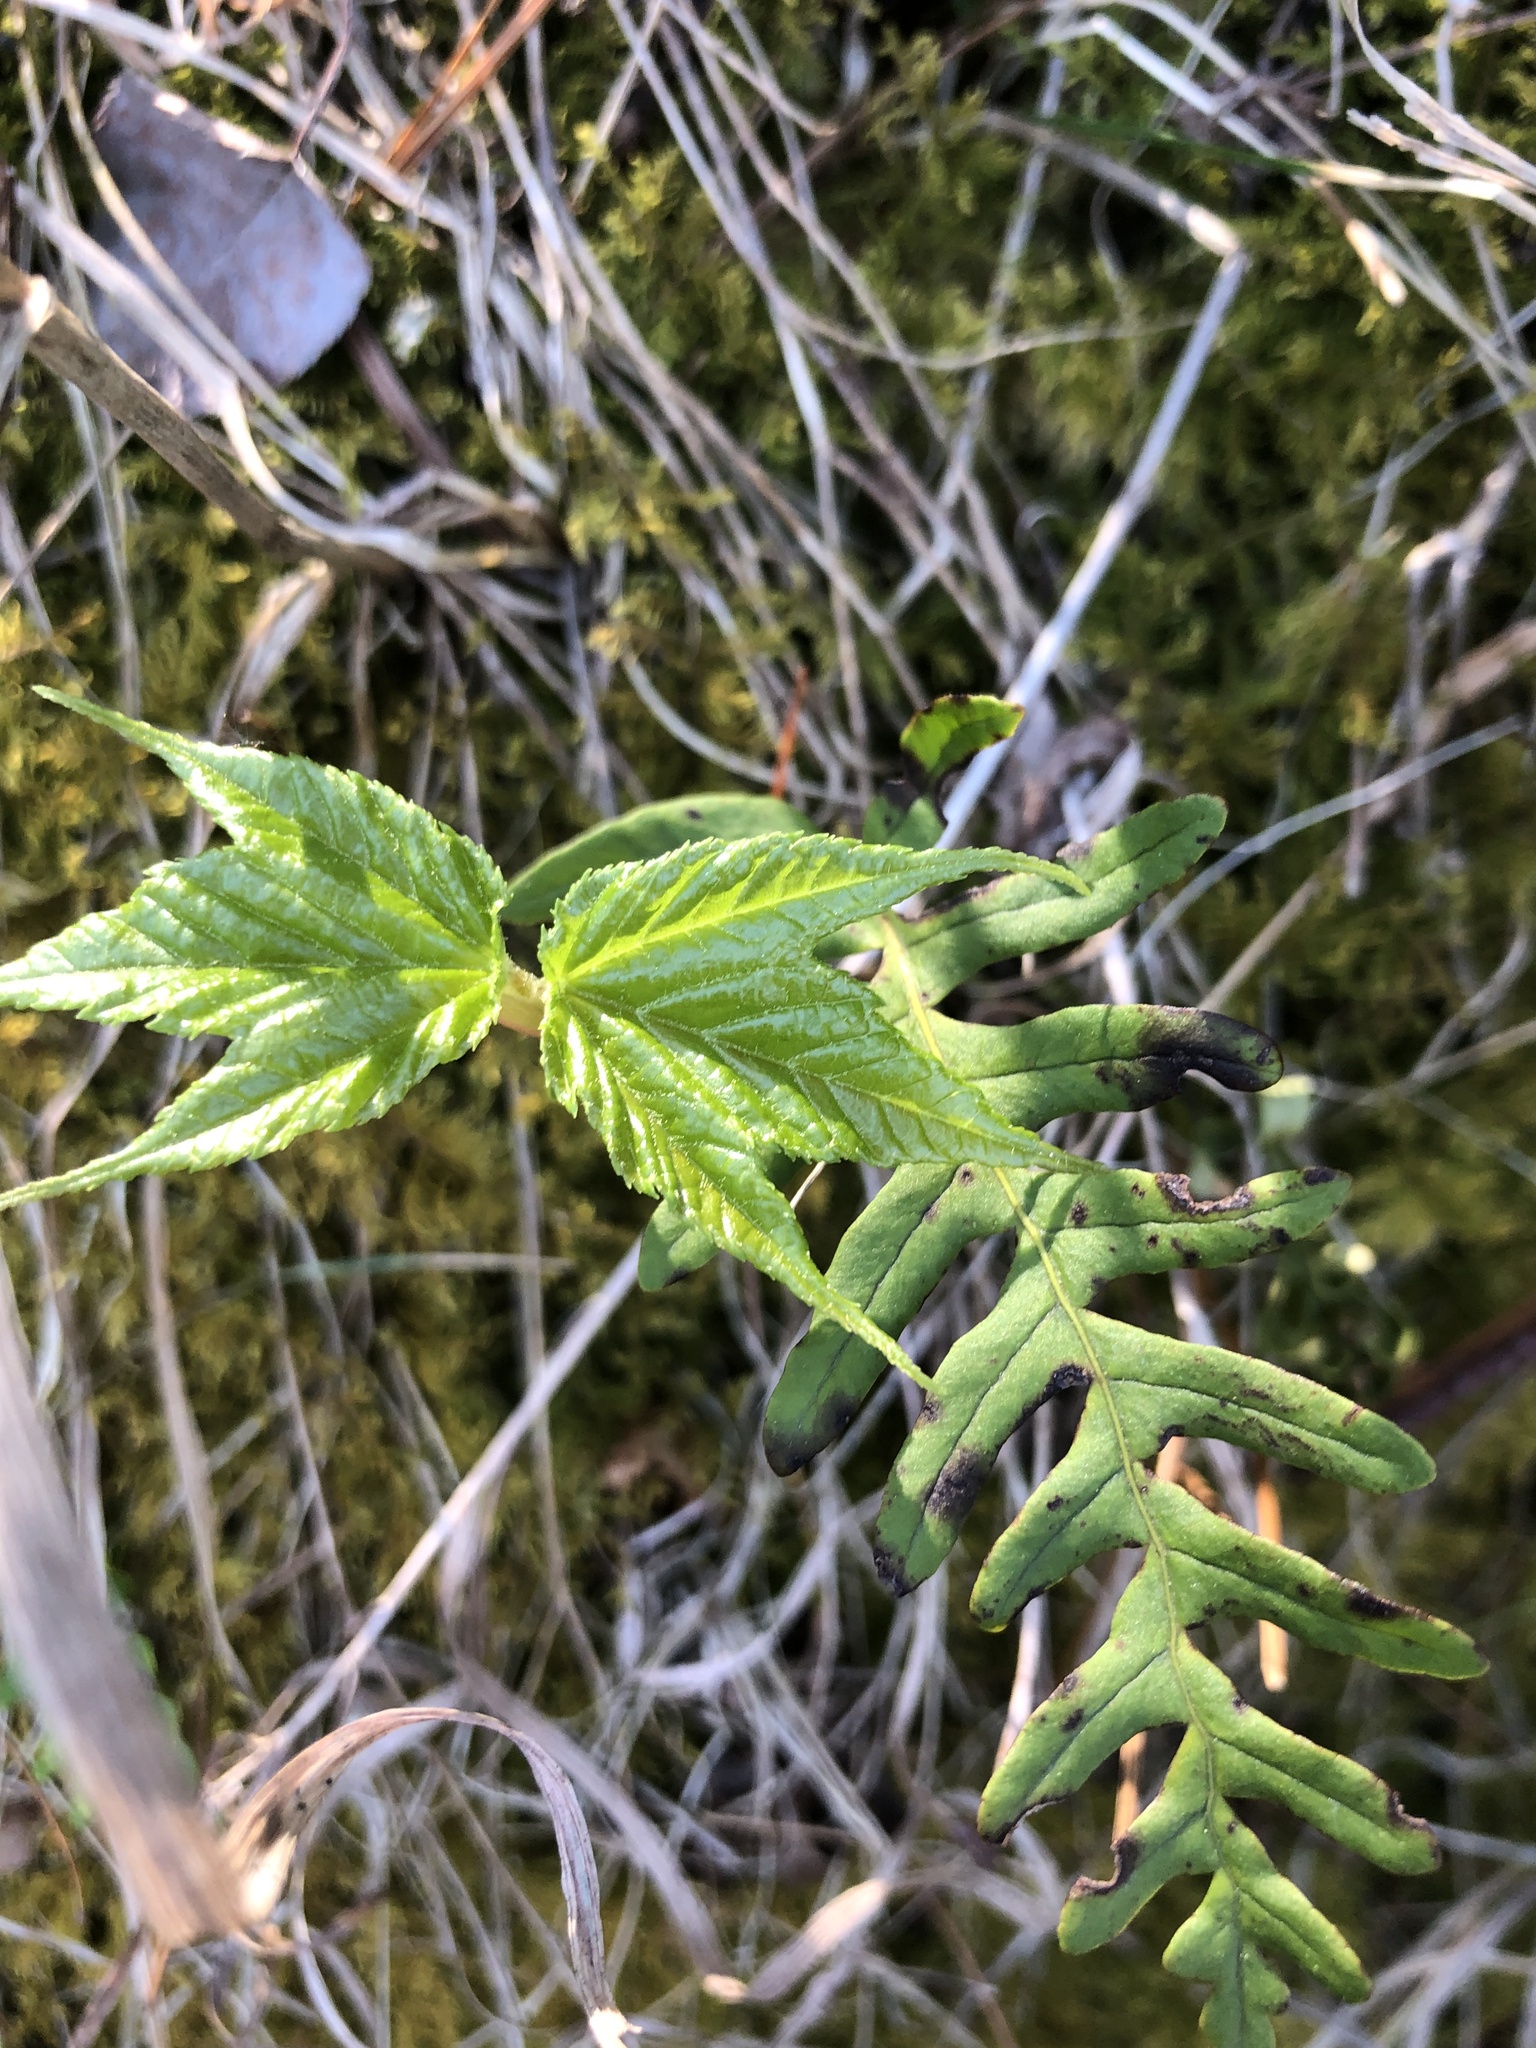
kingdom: Plantae
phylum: Tracheophyta
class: Magnoliopsida
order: Sapindales
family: Sapindaceae
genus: Acer
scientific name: Acer pensylvanicum
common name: Moosewood
